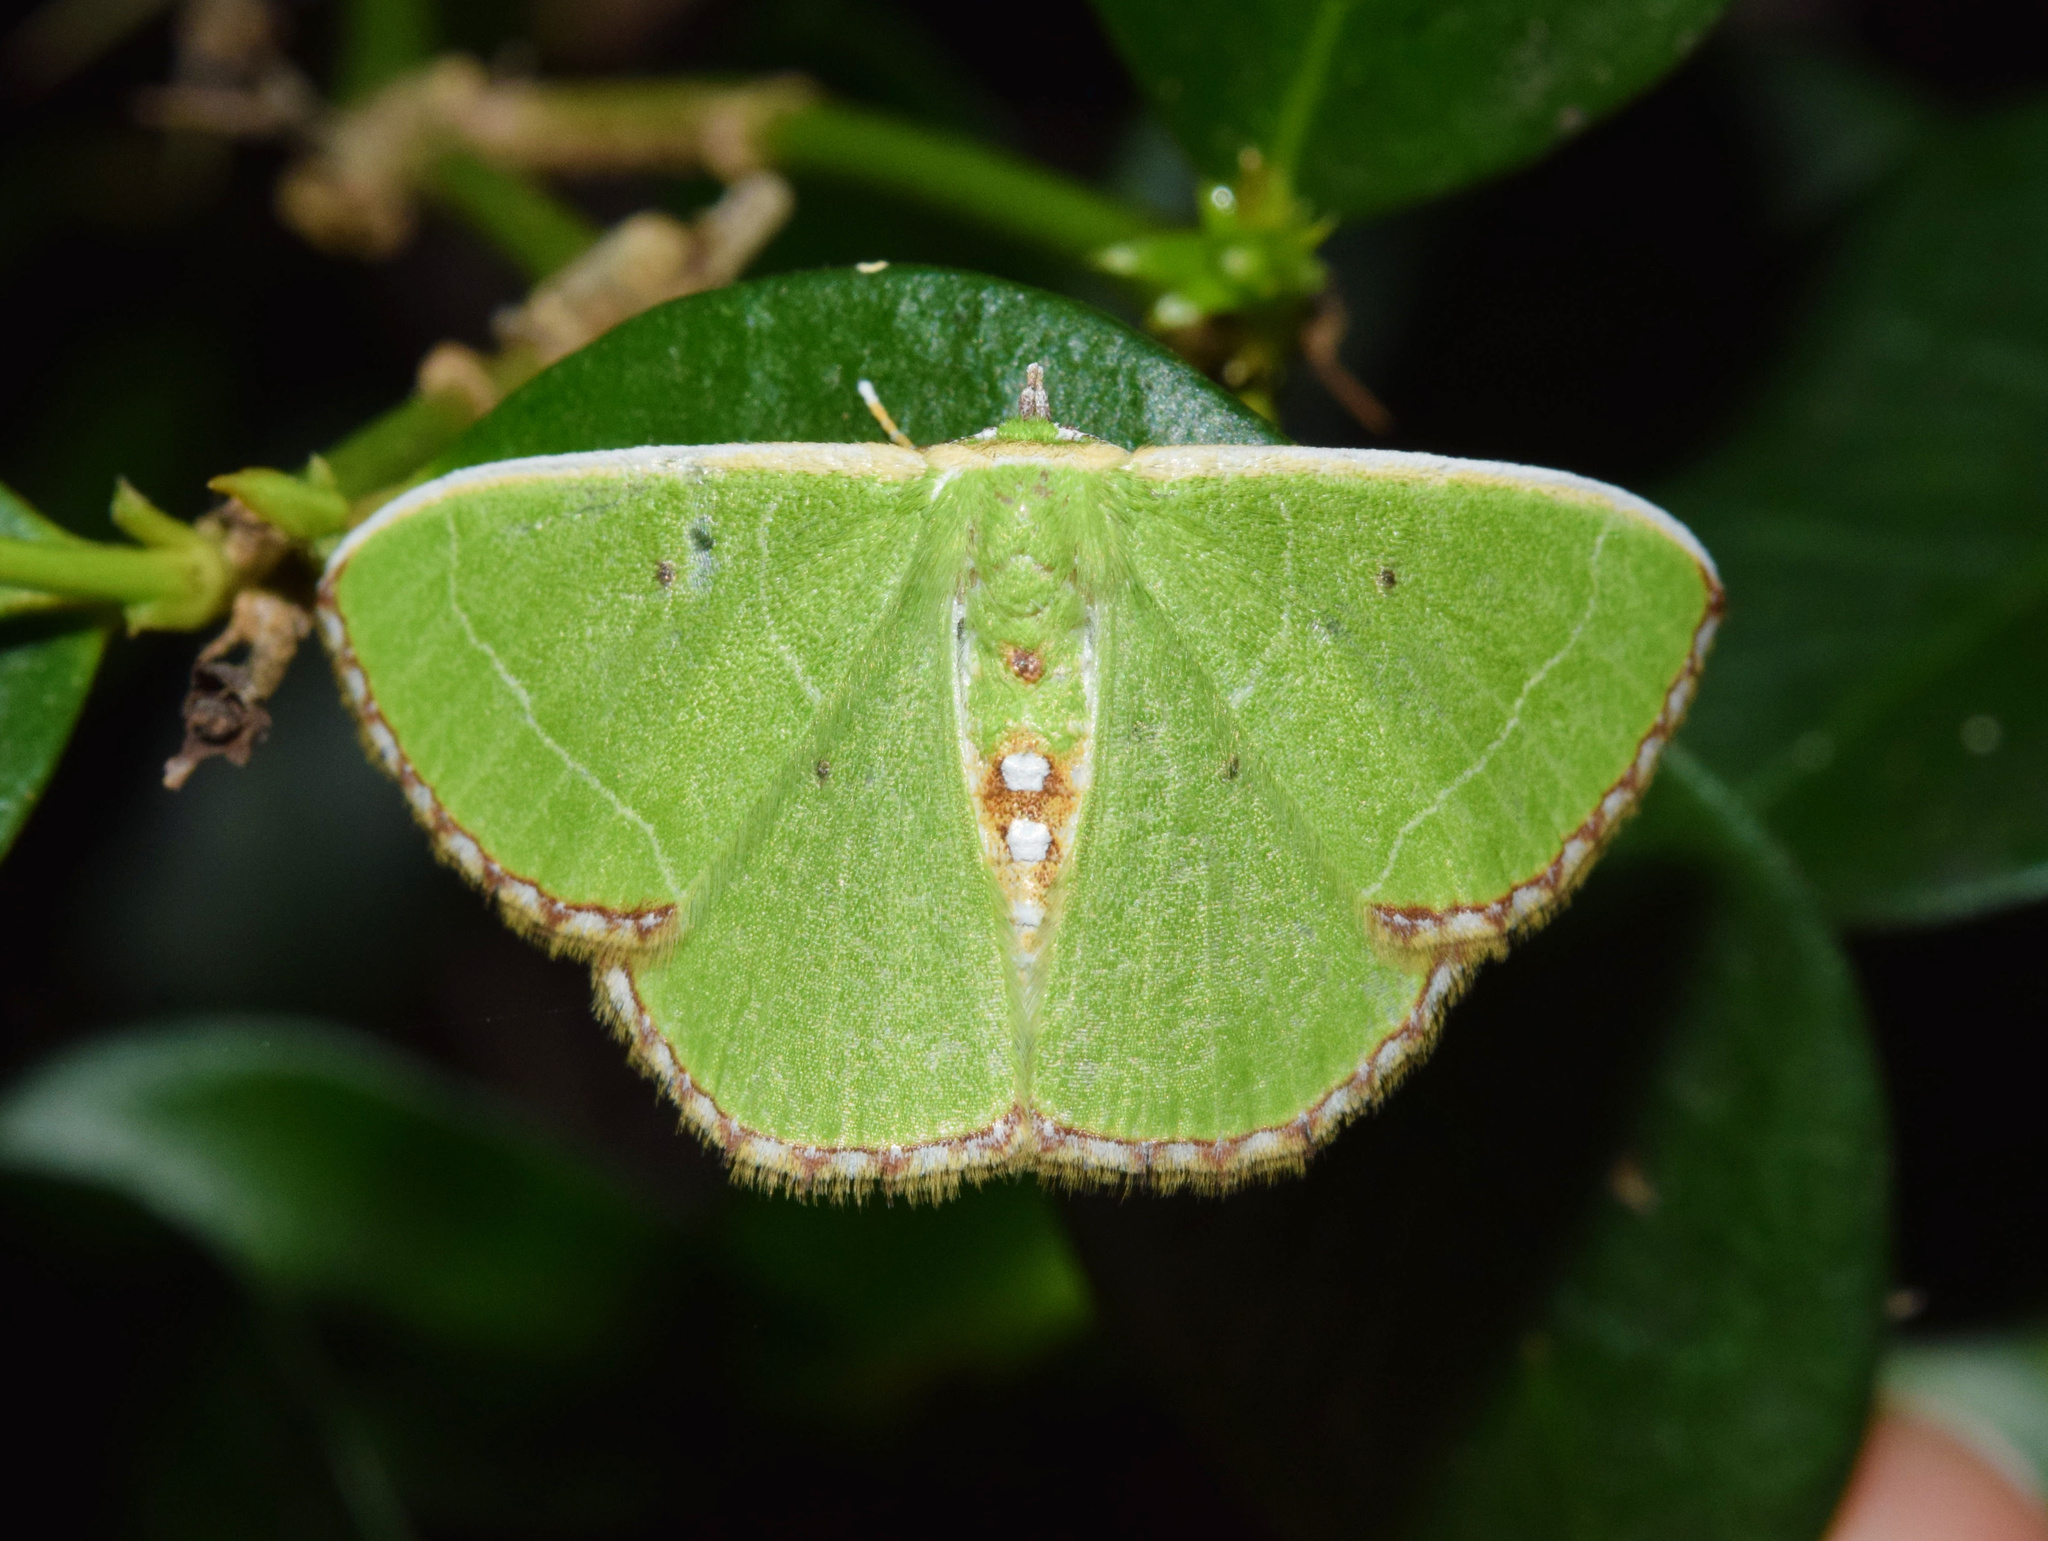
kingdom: Animalia
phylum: Arthropoda
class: Insecta
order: Lepidoptera
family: Geometridae
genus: Comibaena
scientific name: Comibaena leucospilata
